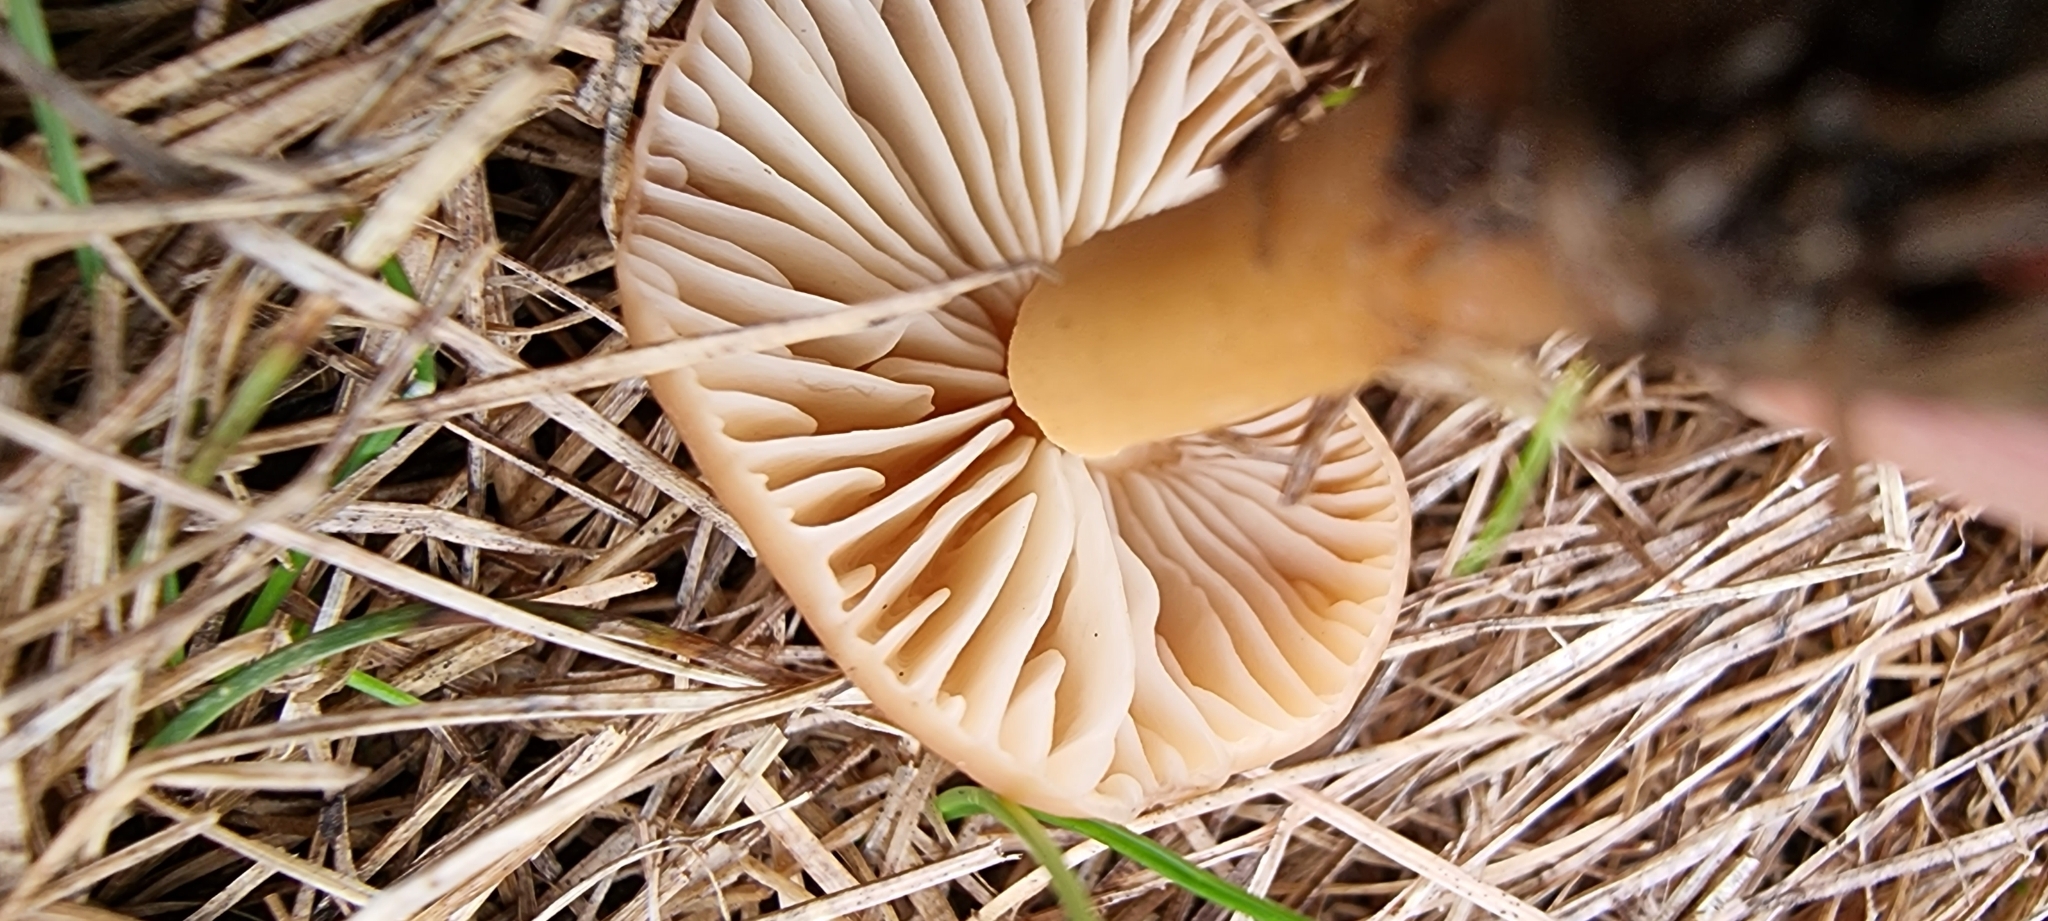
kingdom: Fungi
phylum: Basidiomycota
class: Agaricomycetes
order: Agaricales
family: Marasmiaceae
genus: Marasmius
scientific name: Marasmius oreades
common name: Fairy ring champignon
